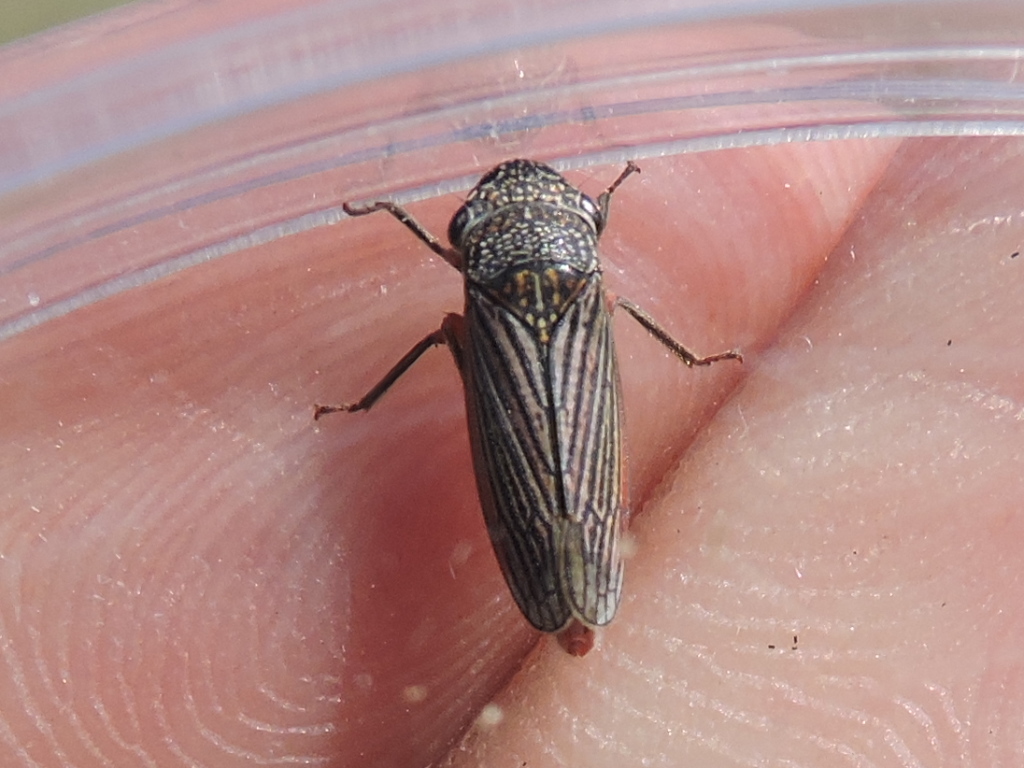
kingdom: Animalia
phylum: Arthropoda
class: Insecta
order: Hemiptera
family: Cicadellidae
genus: Cuerna
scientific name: Cuerna costalis
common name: Lateral-lined sharpshooter
